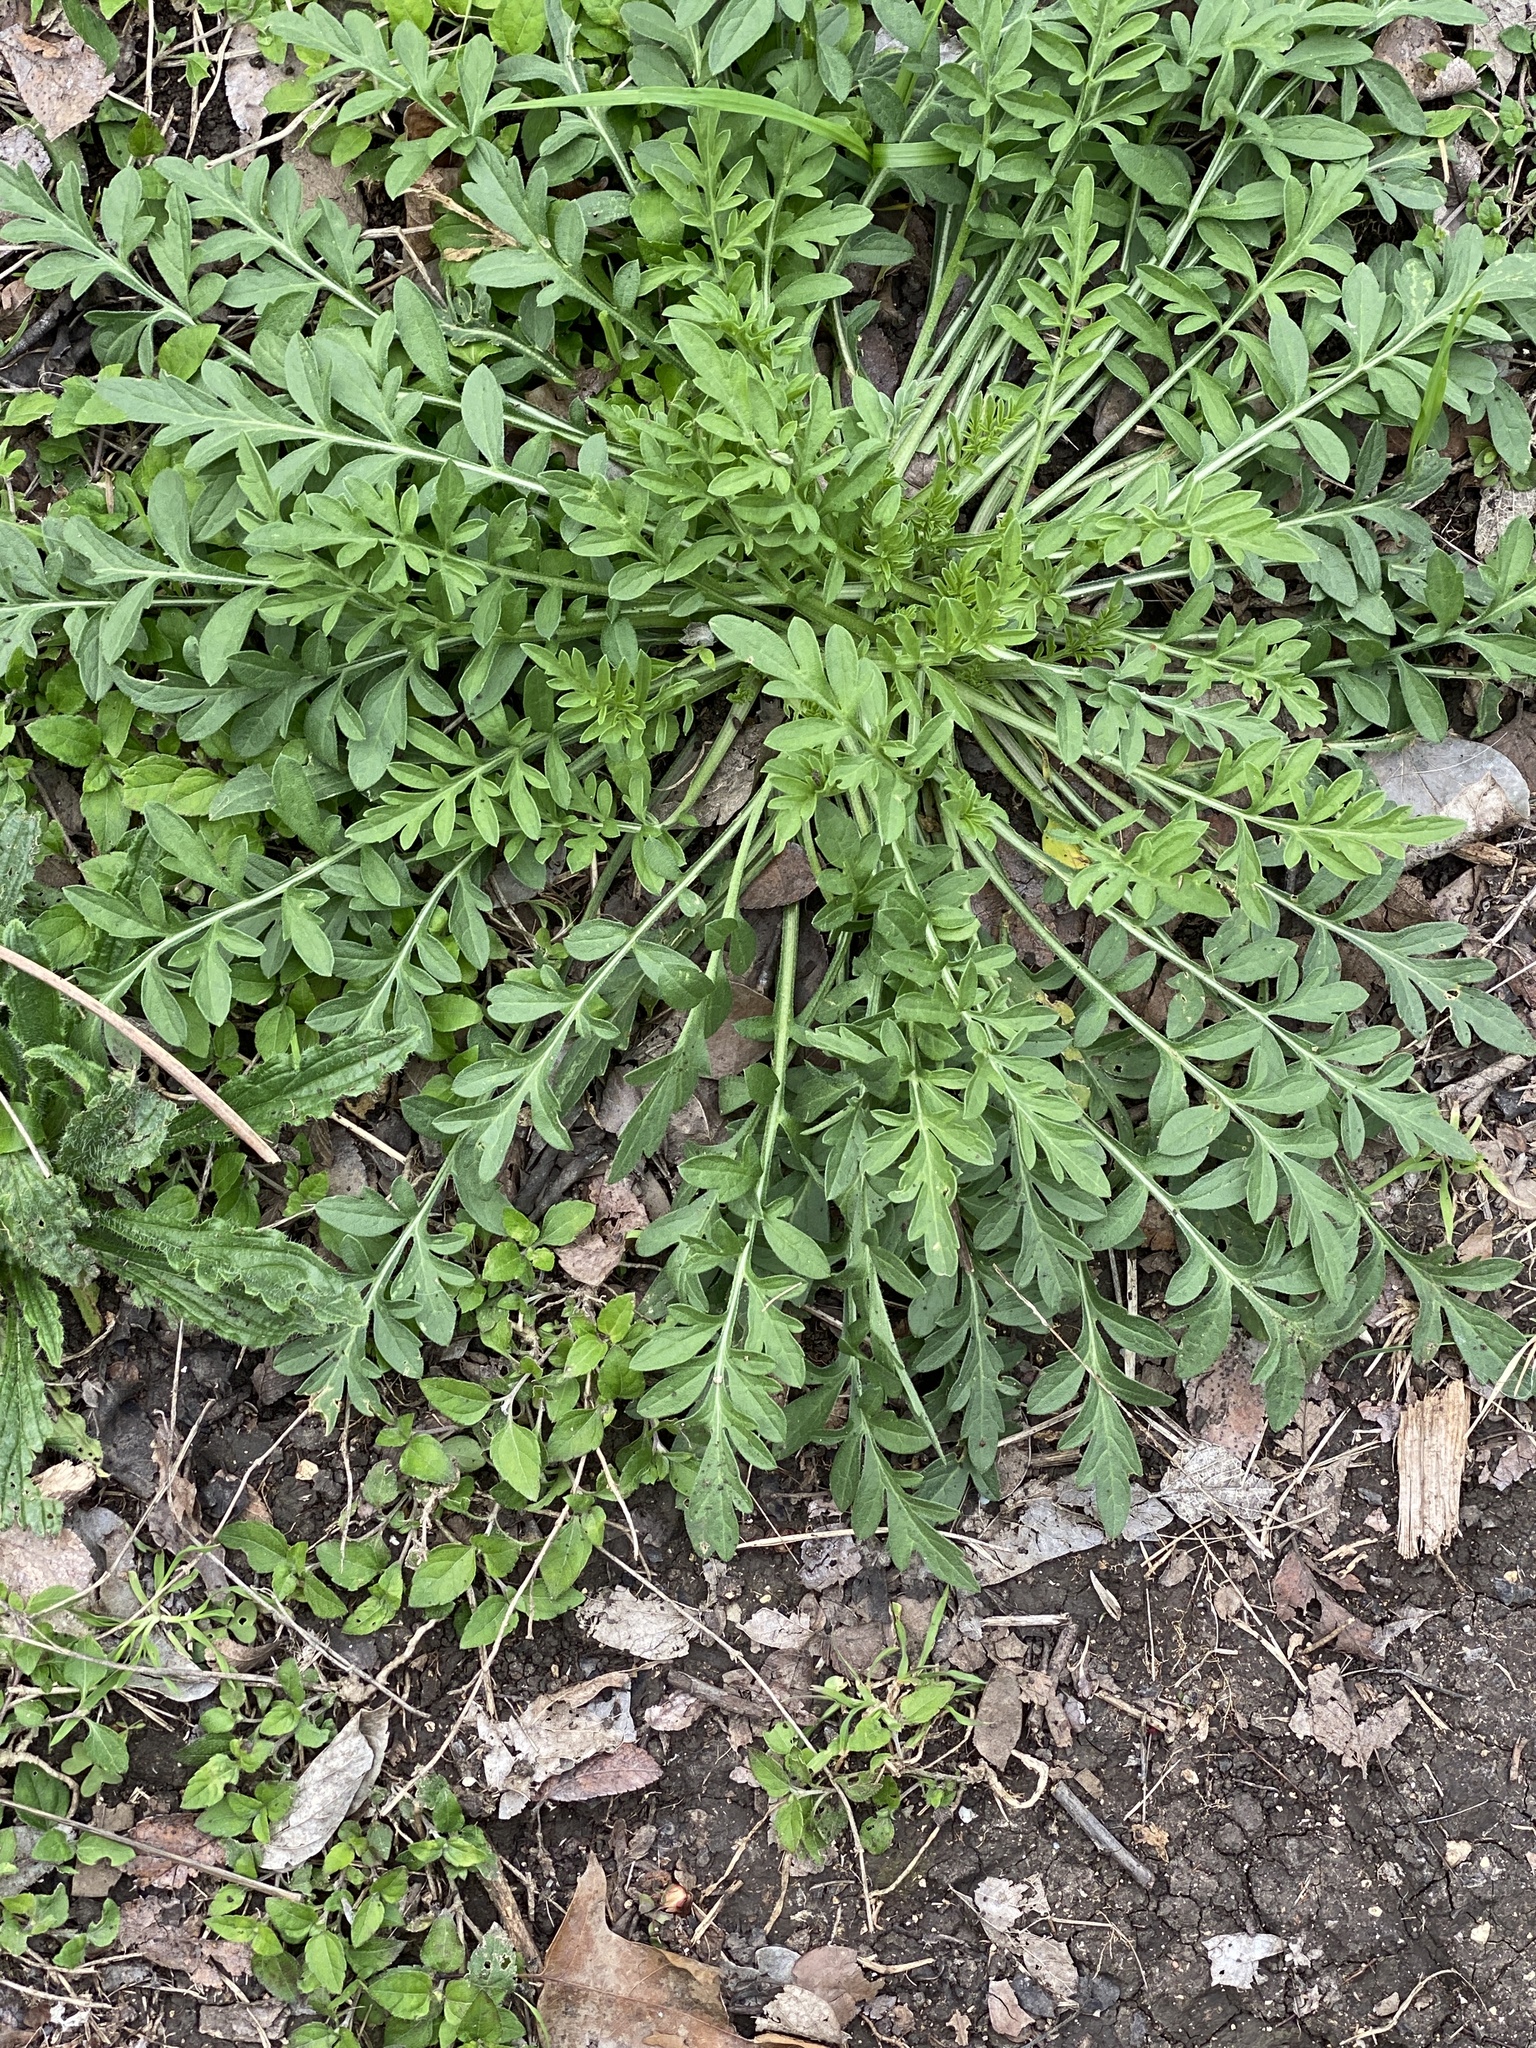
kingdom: Plantae
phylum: Tracheophyta
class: Magnoliopsida
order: Asterales
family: Asteraceae
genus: Ratibida
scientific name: Ratibida columnifera
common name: Prairie coneflower
